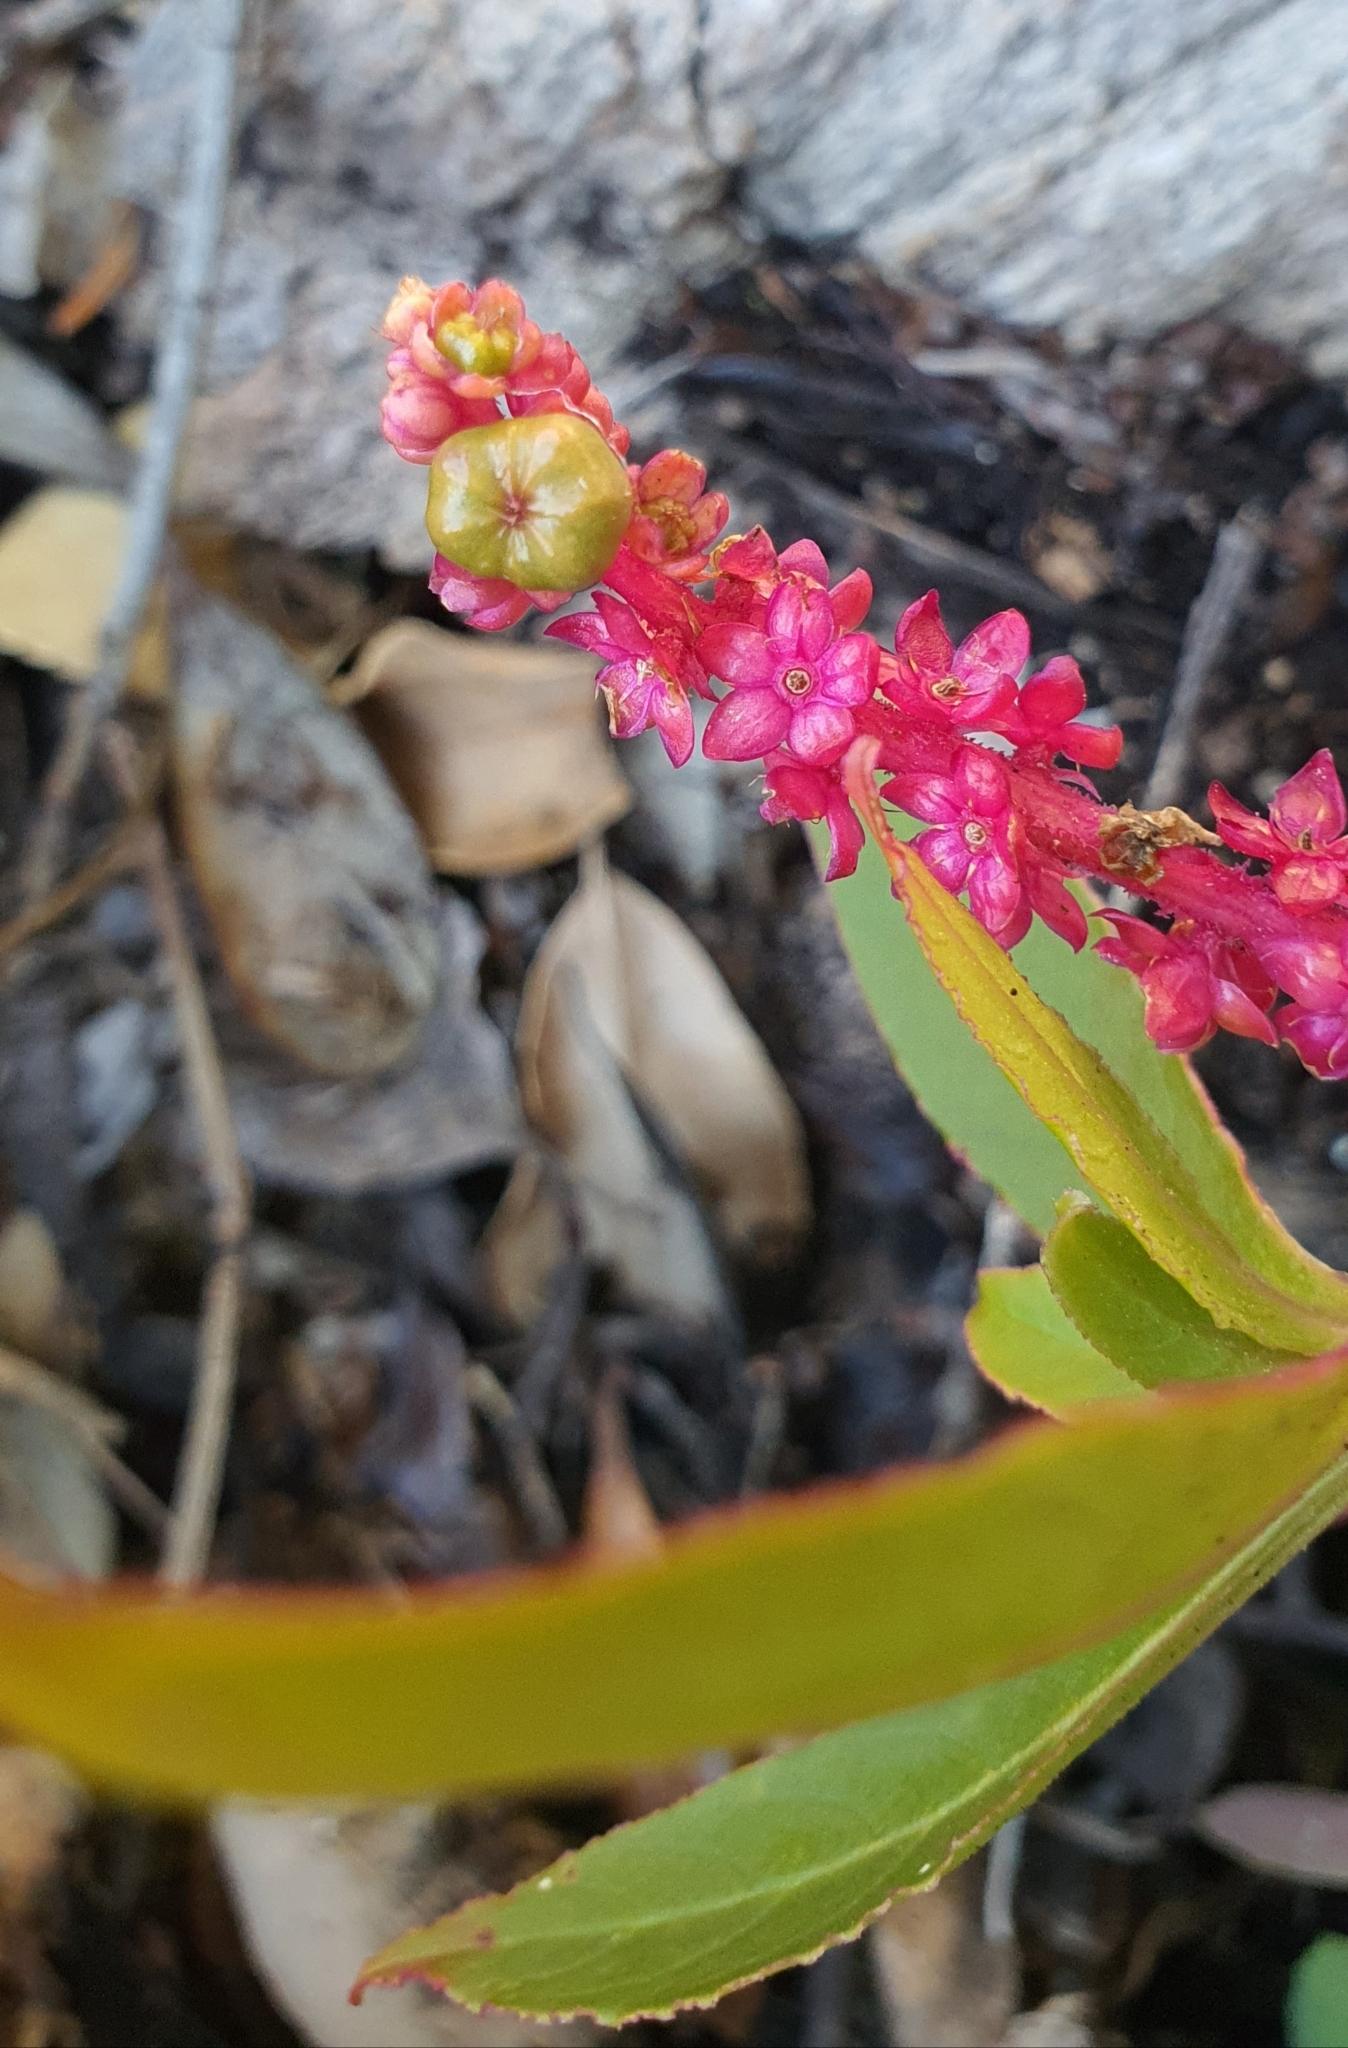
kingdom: Plantae
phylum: Tracheophyta
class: Magnoliopsida
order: Caryophyllales
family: Phytolaccaceae
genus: Phytolacca
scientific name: Phytolacca icosandra
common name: Button pokeweed
